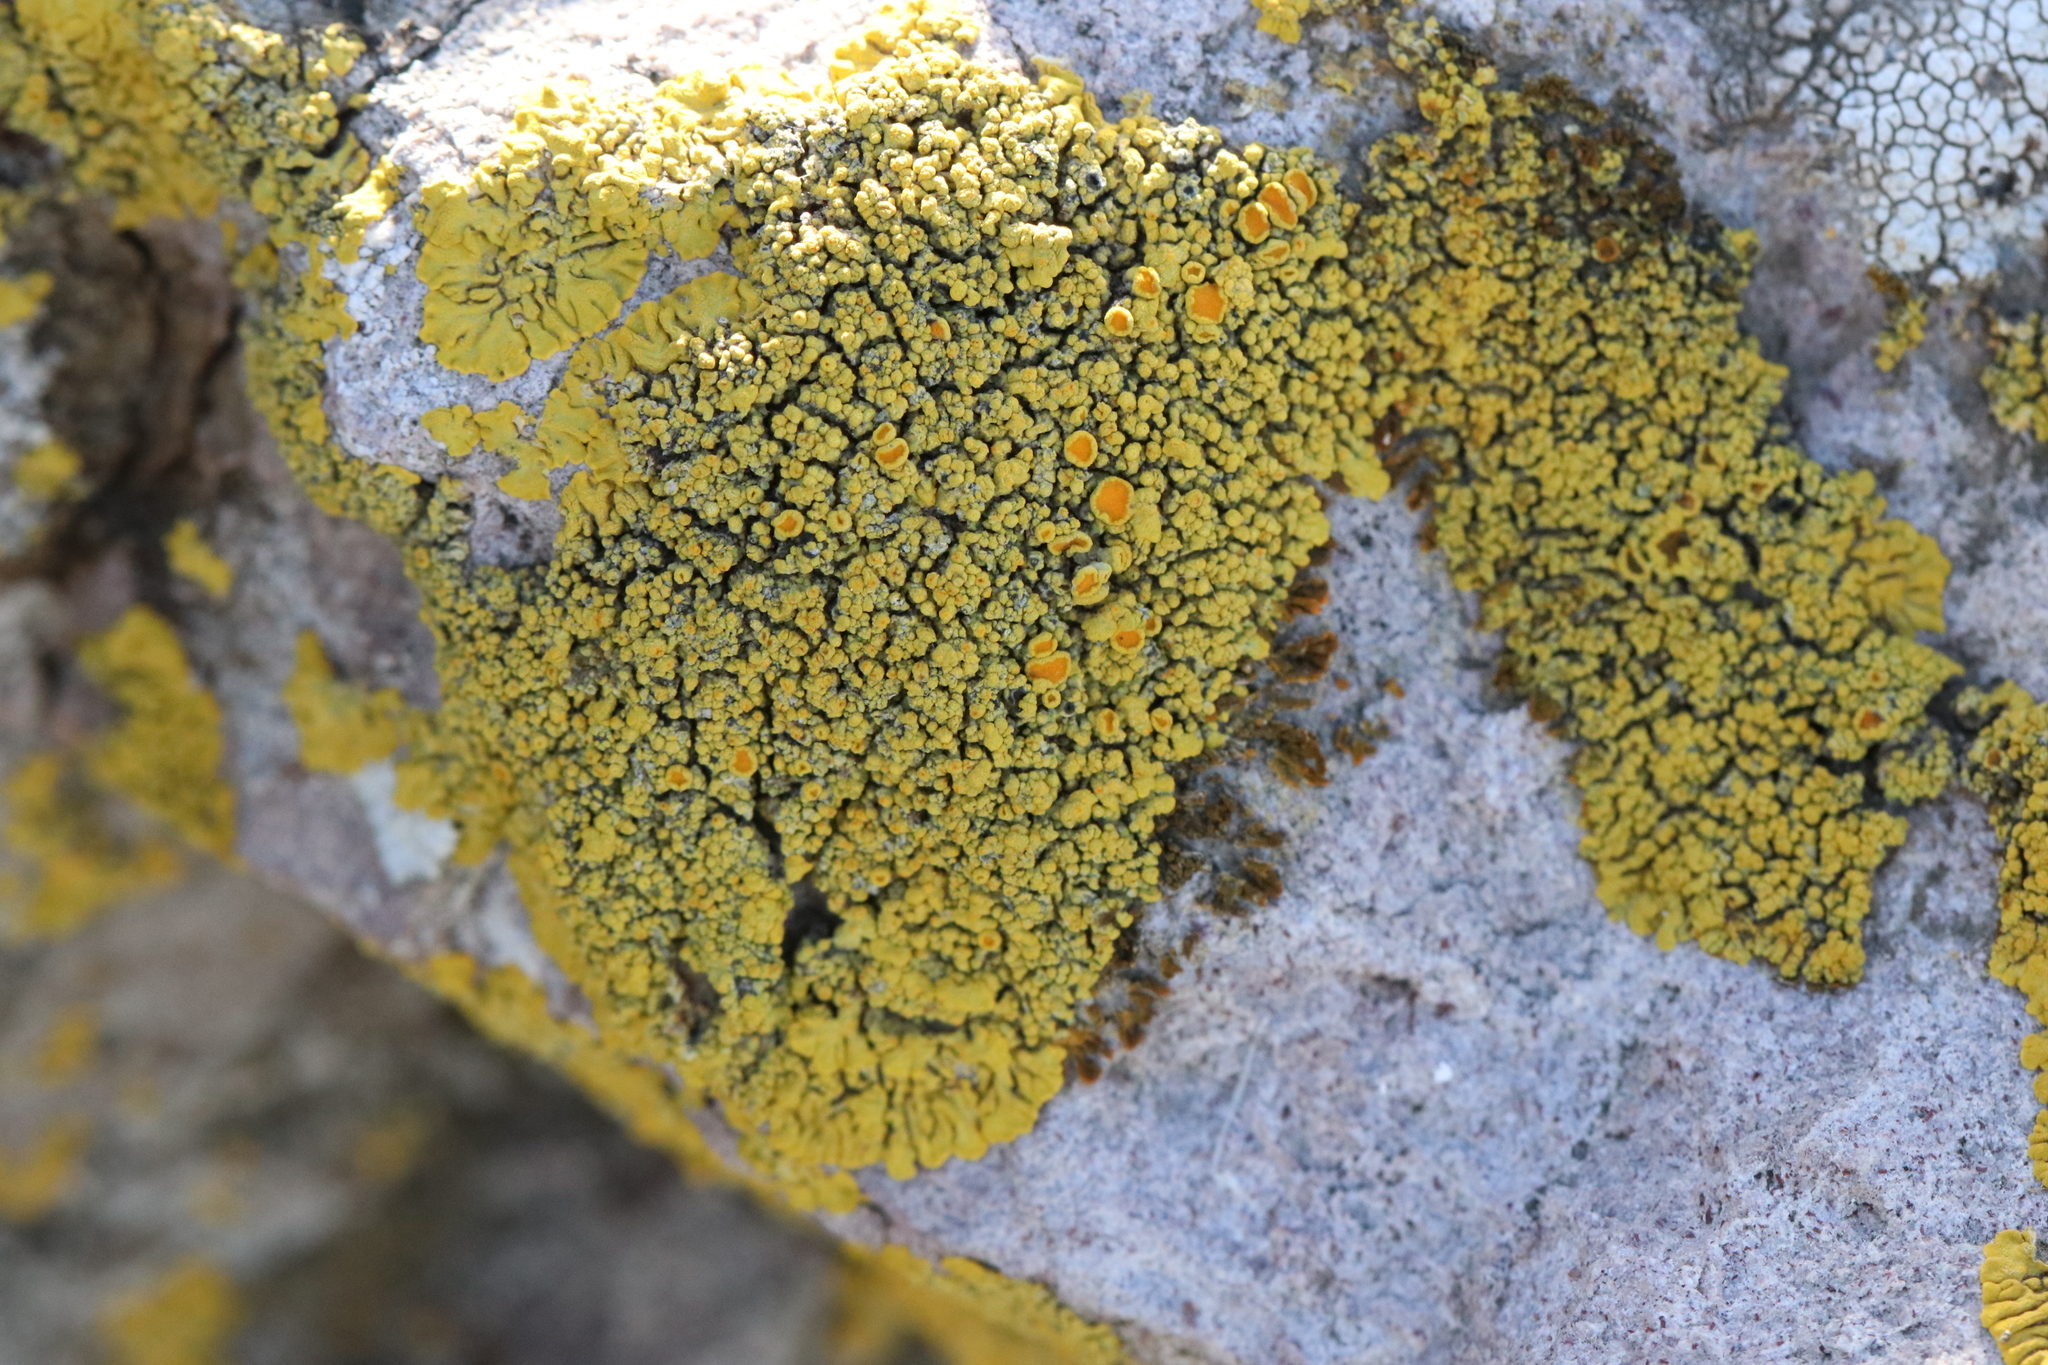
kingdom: Fungi
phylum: Ascomycota
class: Candelariomycetes
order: Candelariales
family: Candelariaceae
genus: Candelariella
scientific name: Candelariella rosulans
